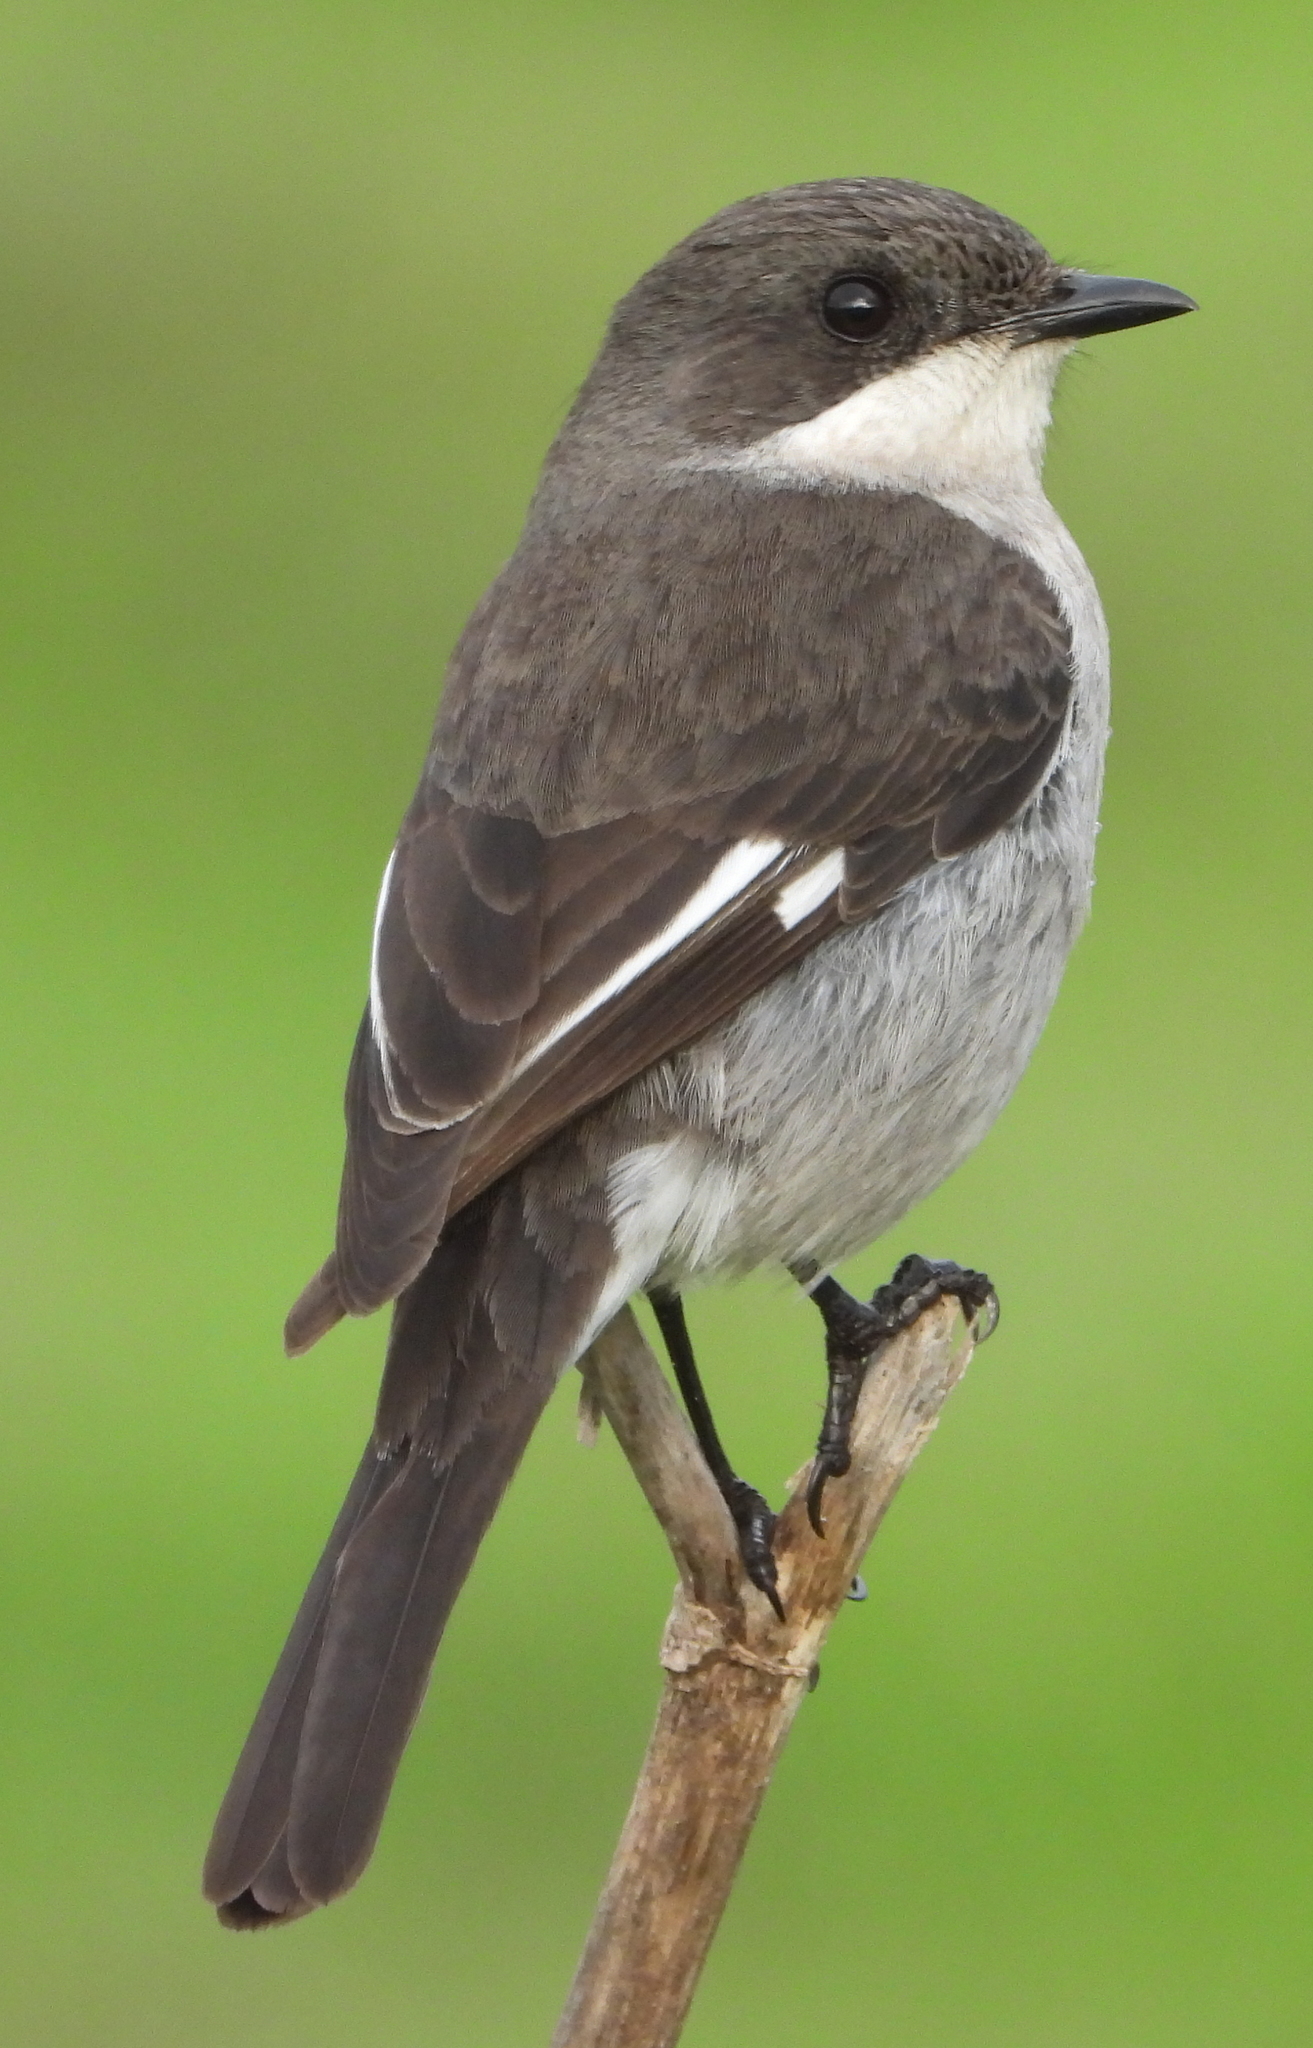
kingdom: Animalia
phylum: Chordata
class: Aves
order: Passeriformes
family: Muscicapidae
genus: Sigelus
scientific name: Sigelus silens
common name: Fiscal flycatcher
